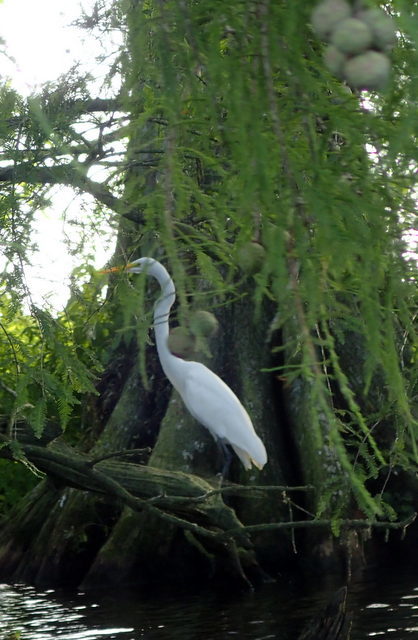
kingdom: Animalia
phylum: Chordata
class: Aves
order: Pelecaniformes
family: Ardeidae
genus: Ardea
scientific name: Ardea alba
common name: Great egret
